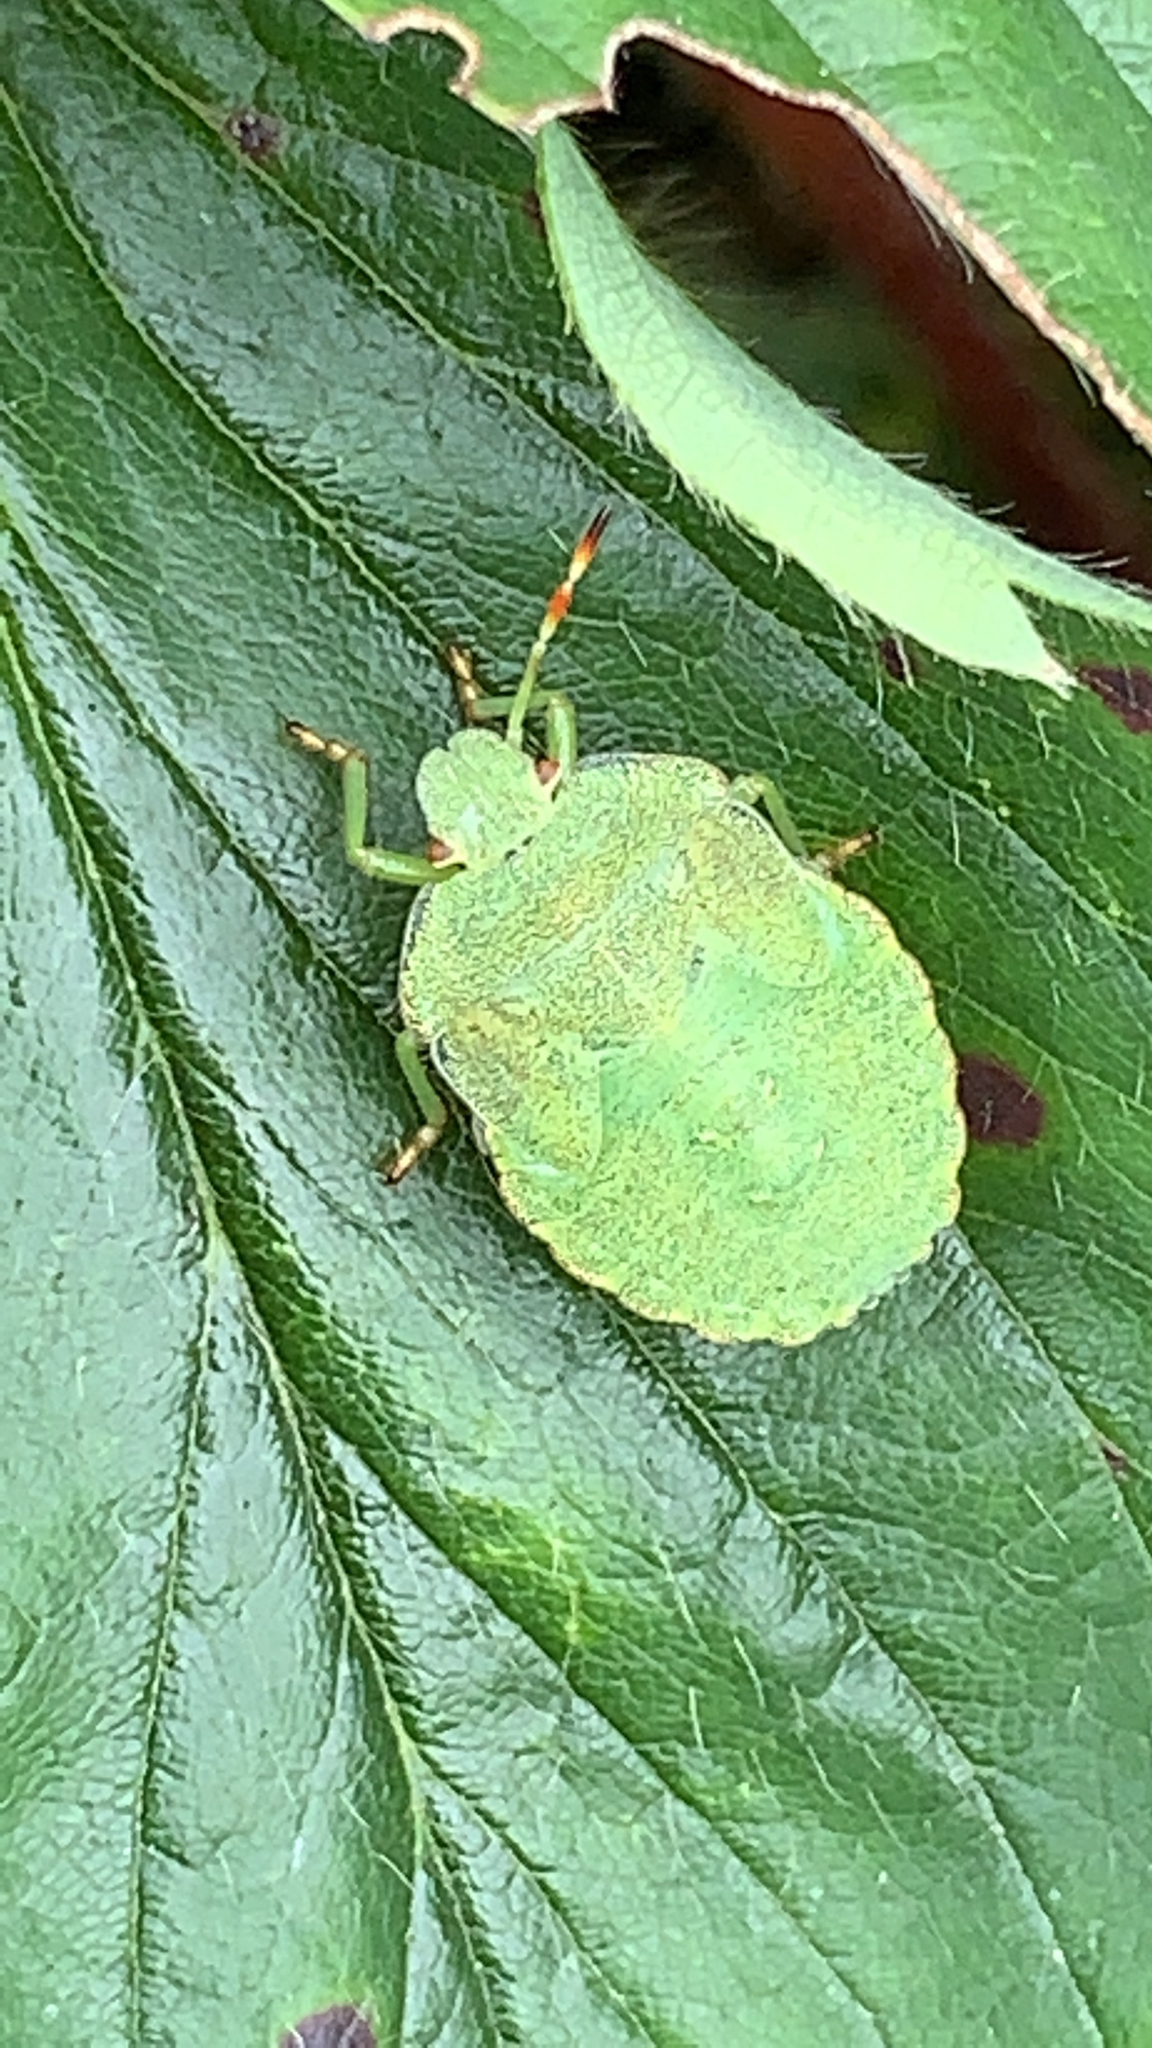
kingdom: Animalia
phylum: Arthropoda
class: Insecta
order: Hemiptera
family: Pentatomidae
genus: Palomena
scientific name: Palomena prasina
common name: Green shieldbug
